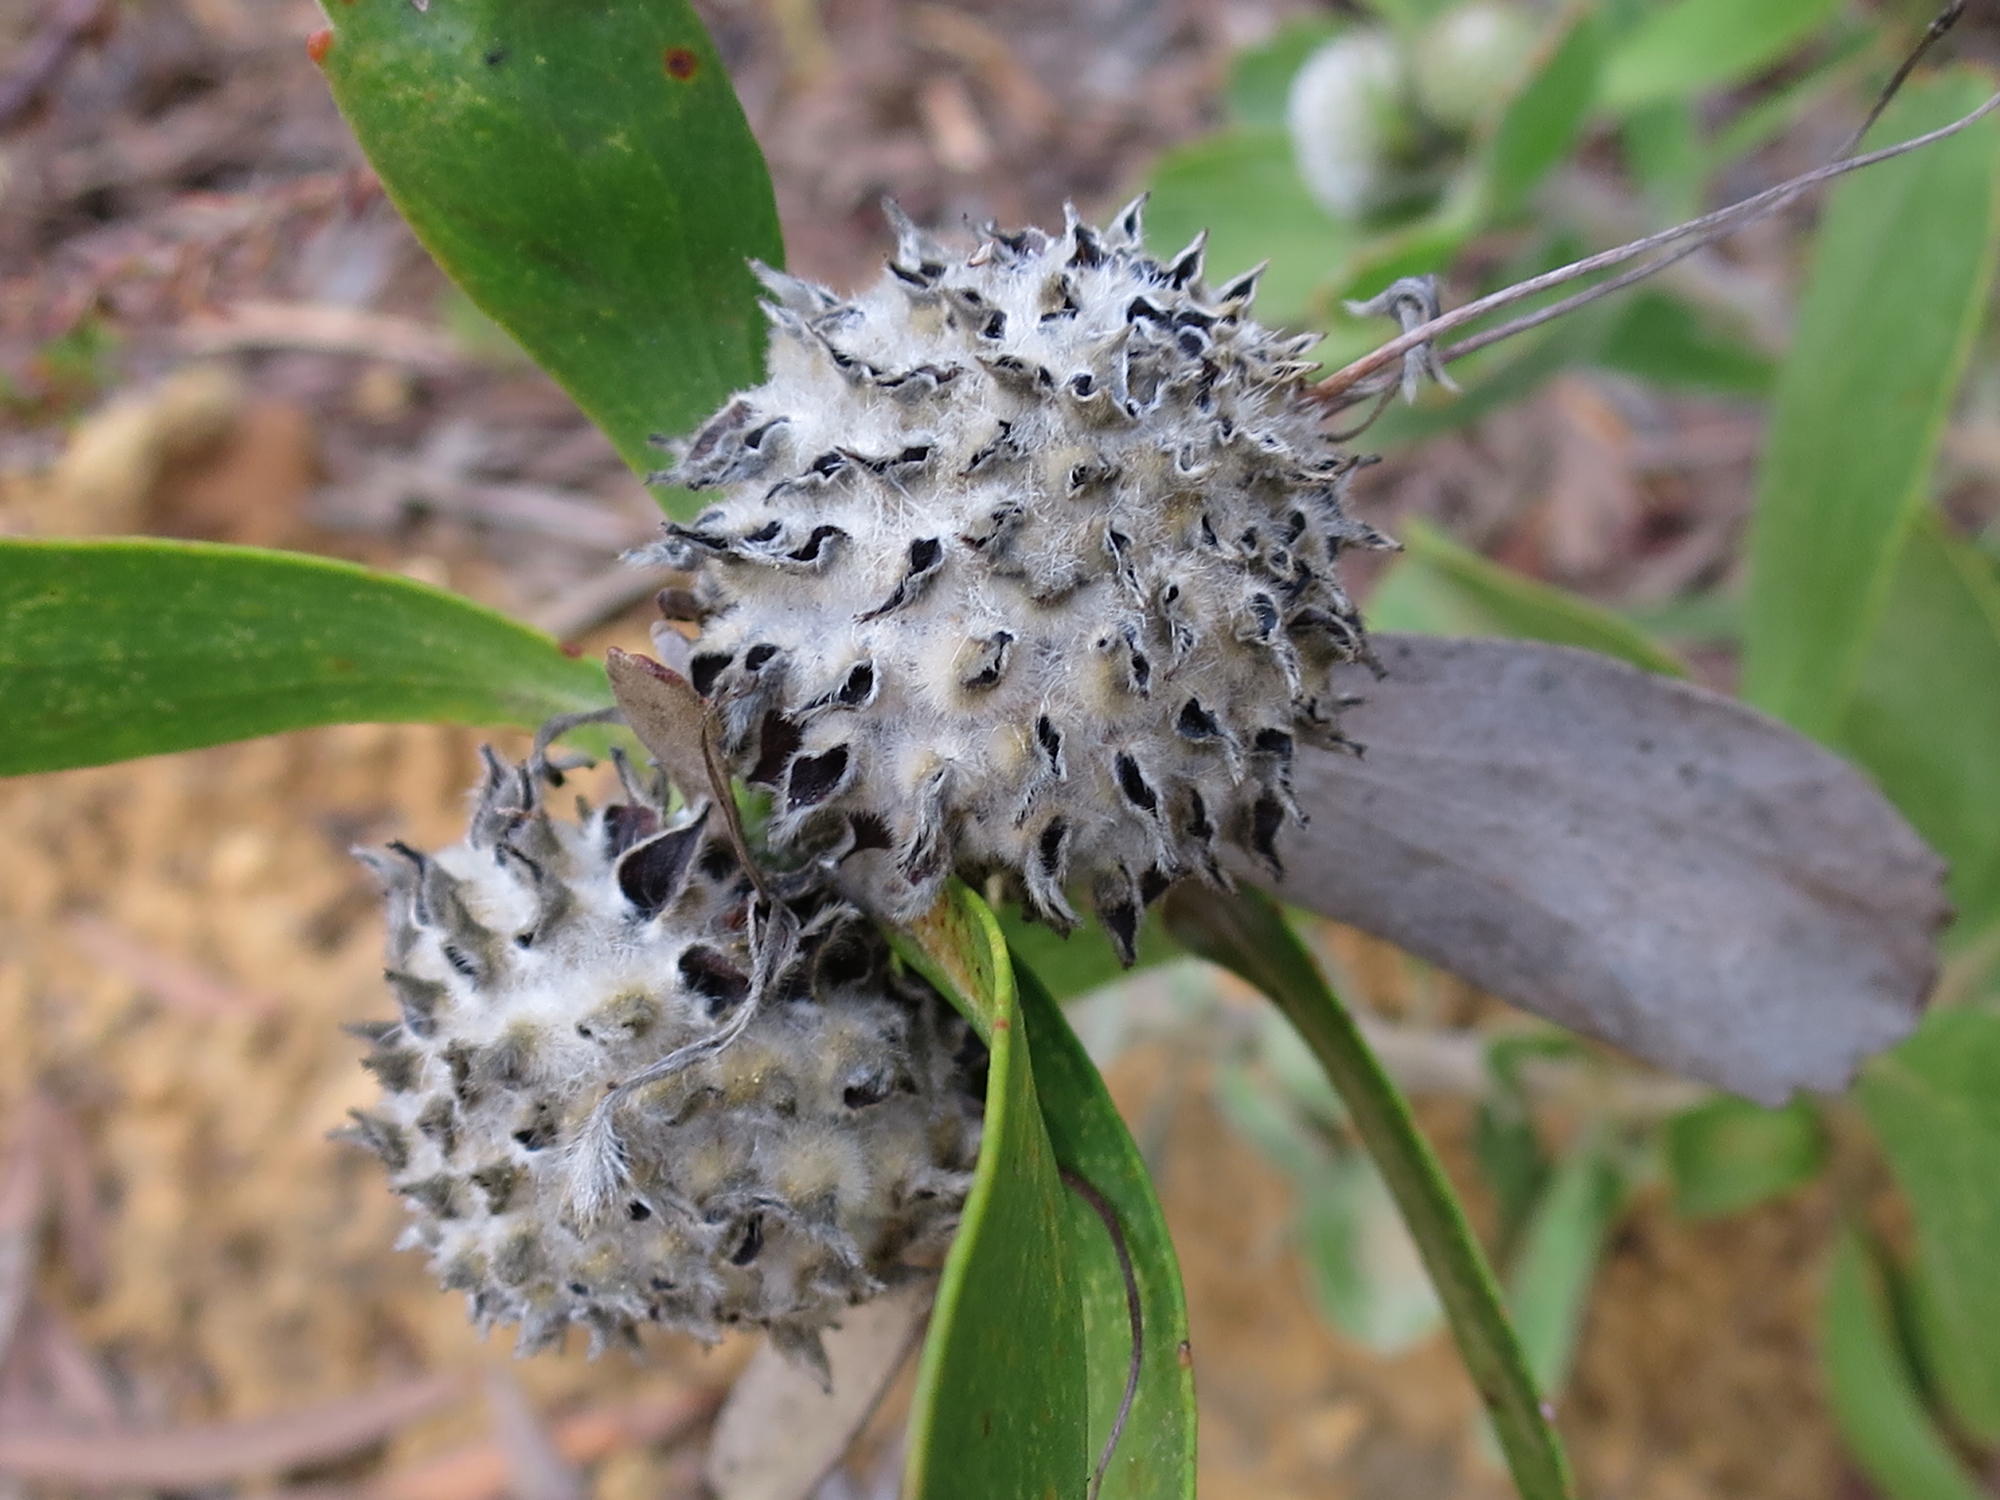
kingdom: Plantae
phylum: Tracheophyta
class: Magnoliopsida
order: Proteales
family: Proteaceae
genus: Leucospermum
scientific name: Leucospermum praecox
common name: Mossel bay pincushion
